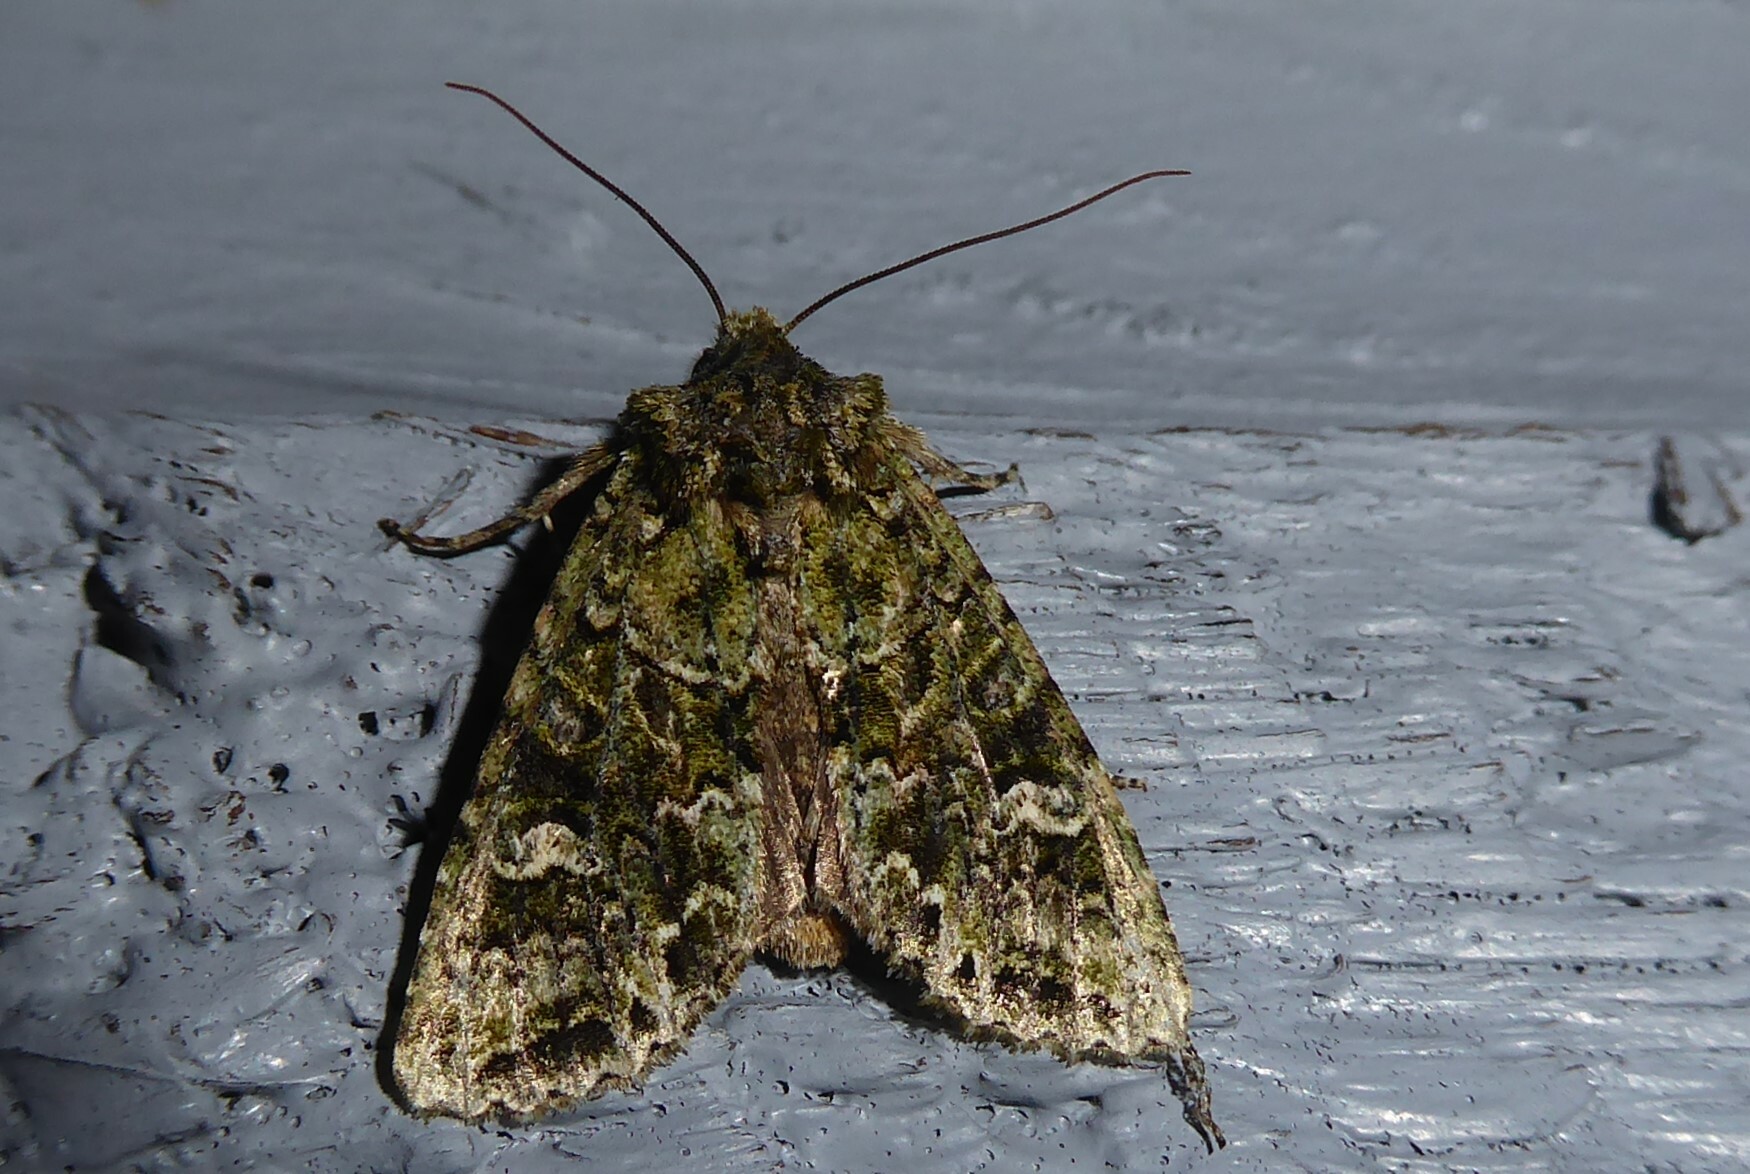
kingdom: Animalia
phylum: Arthropoda
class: Insecta
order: Lepidoptera
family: Noctuidae
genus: Ichneutica
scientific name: Ichneutica
